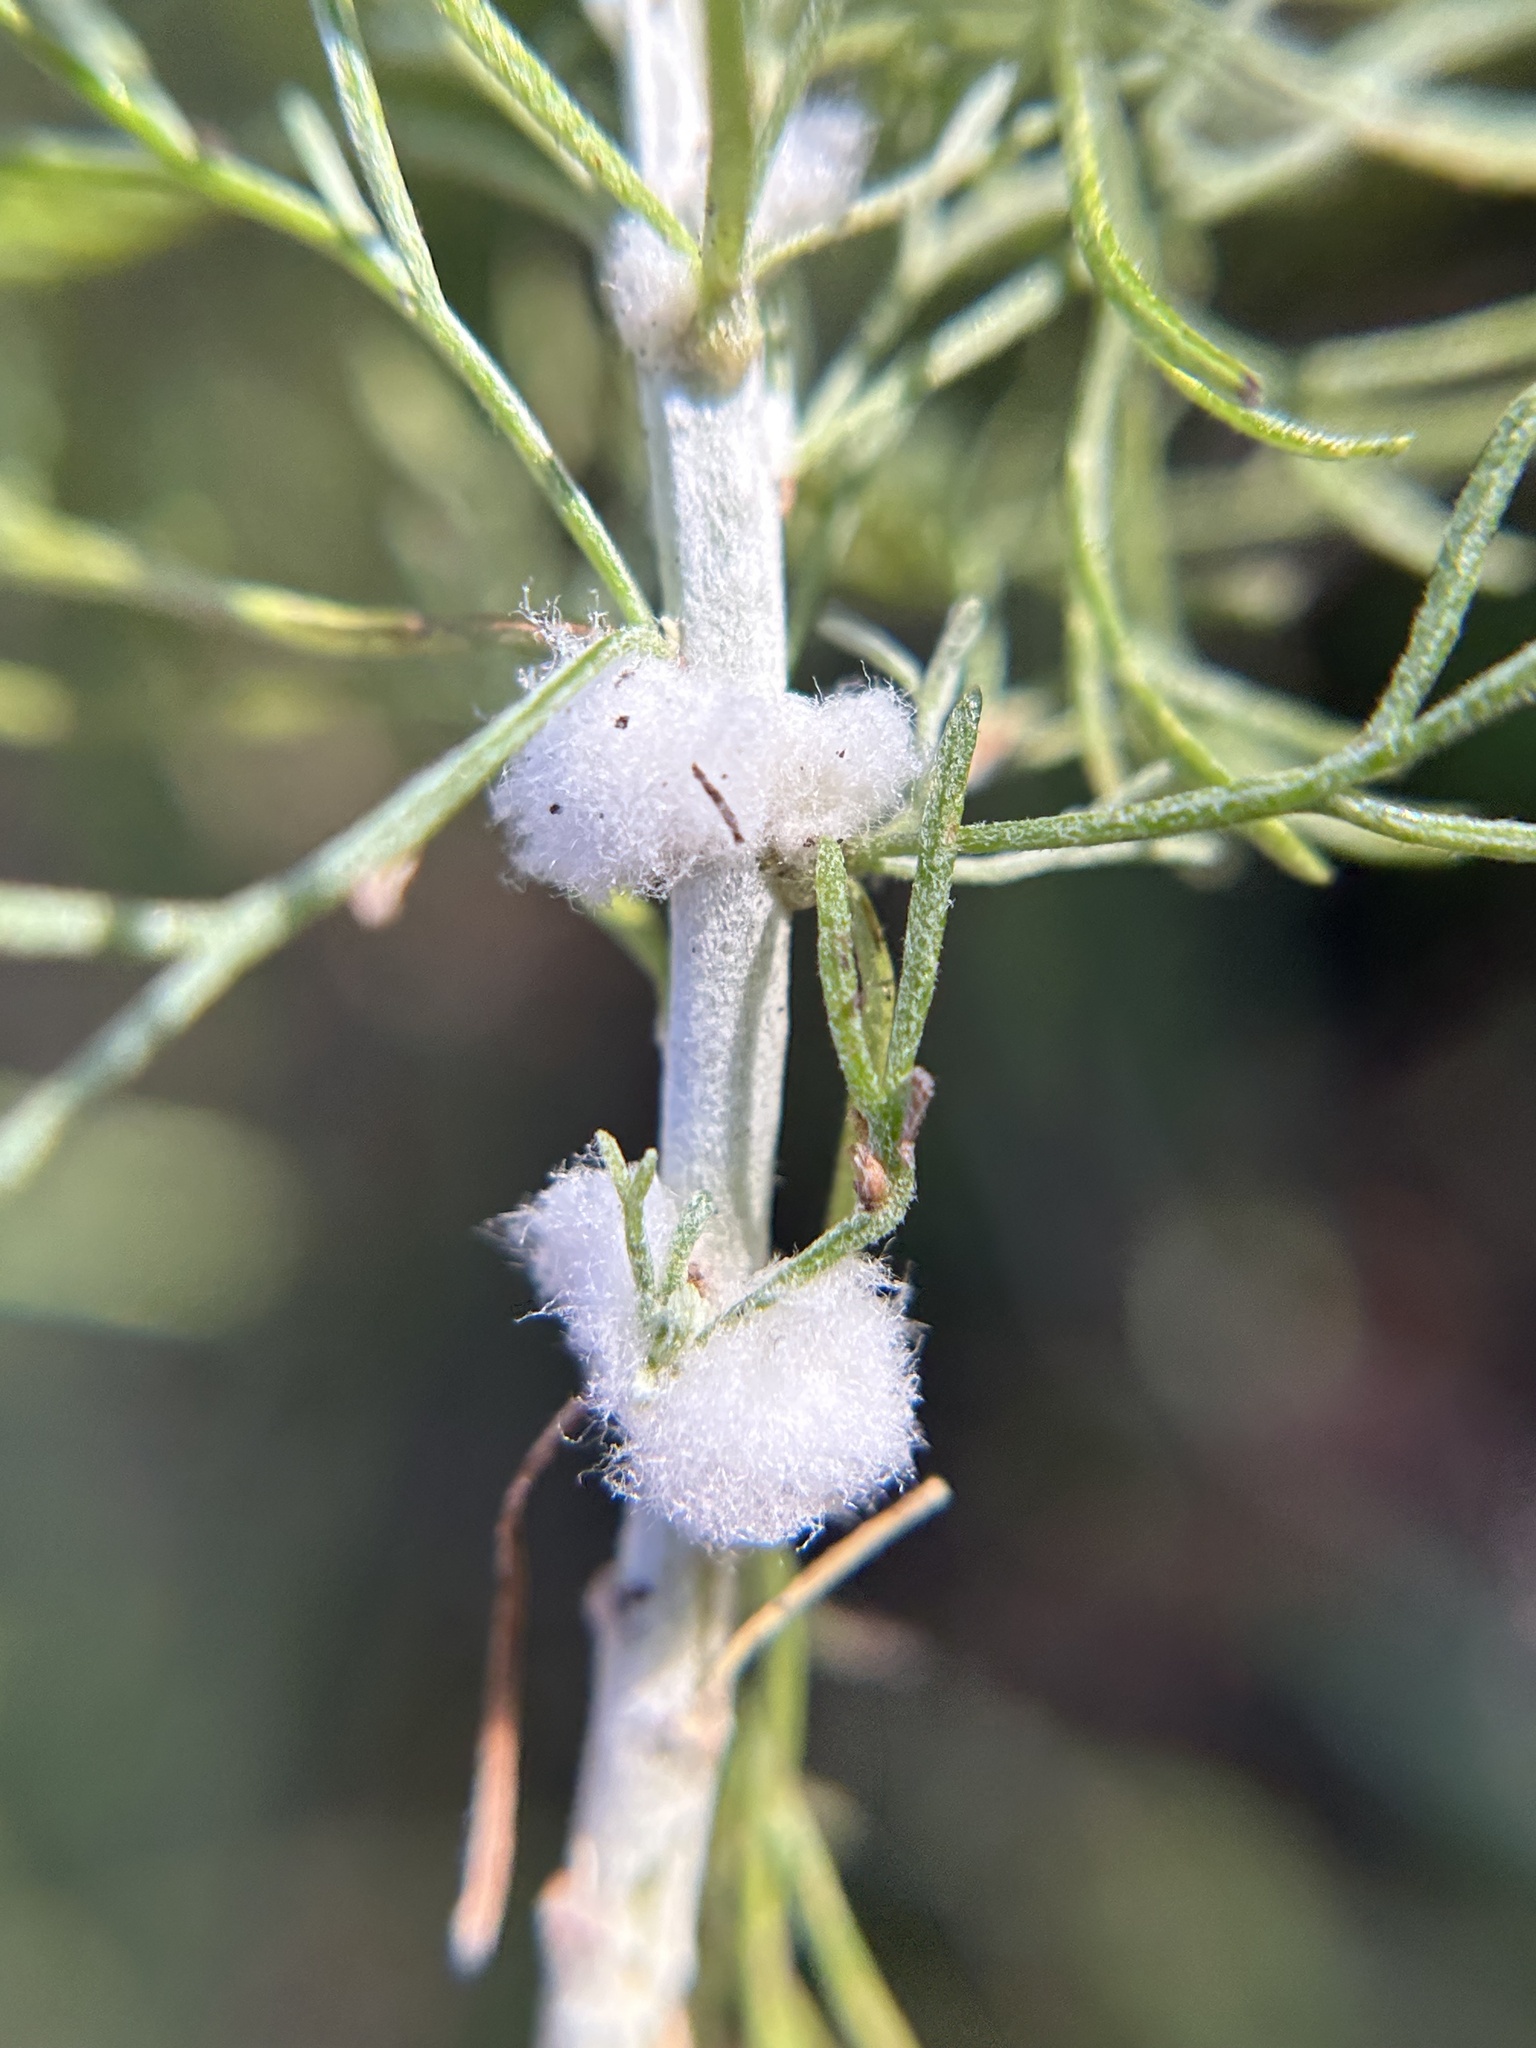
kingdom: Animalia
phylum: Arthropoda
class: Insecta
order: Diptera
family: Cecidomyiidae
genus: Rhopalomyia
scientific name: Rhopalomyia floccosa
